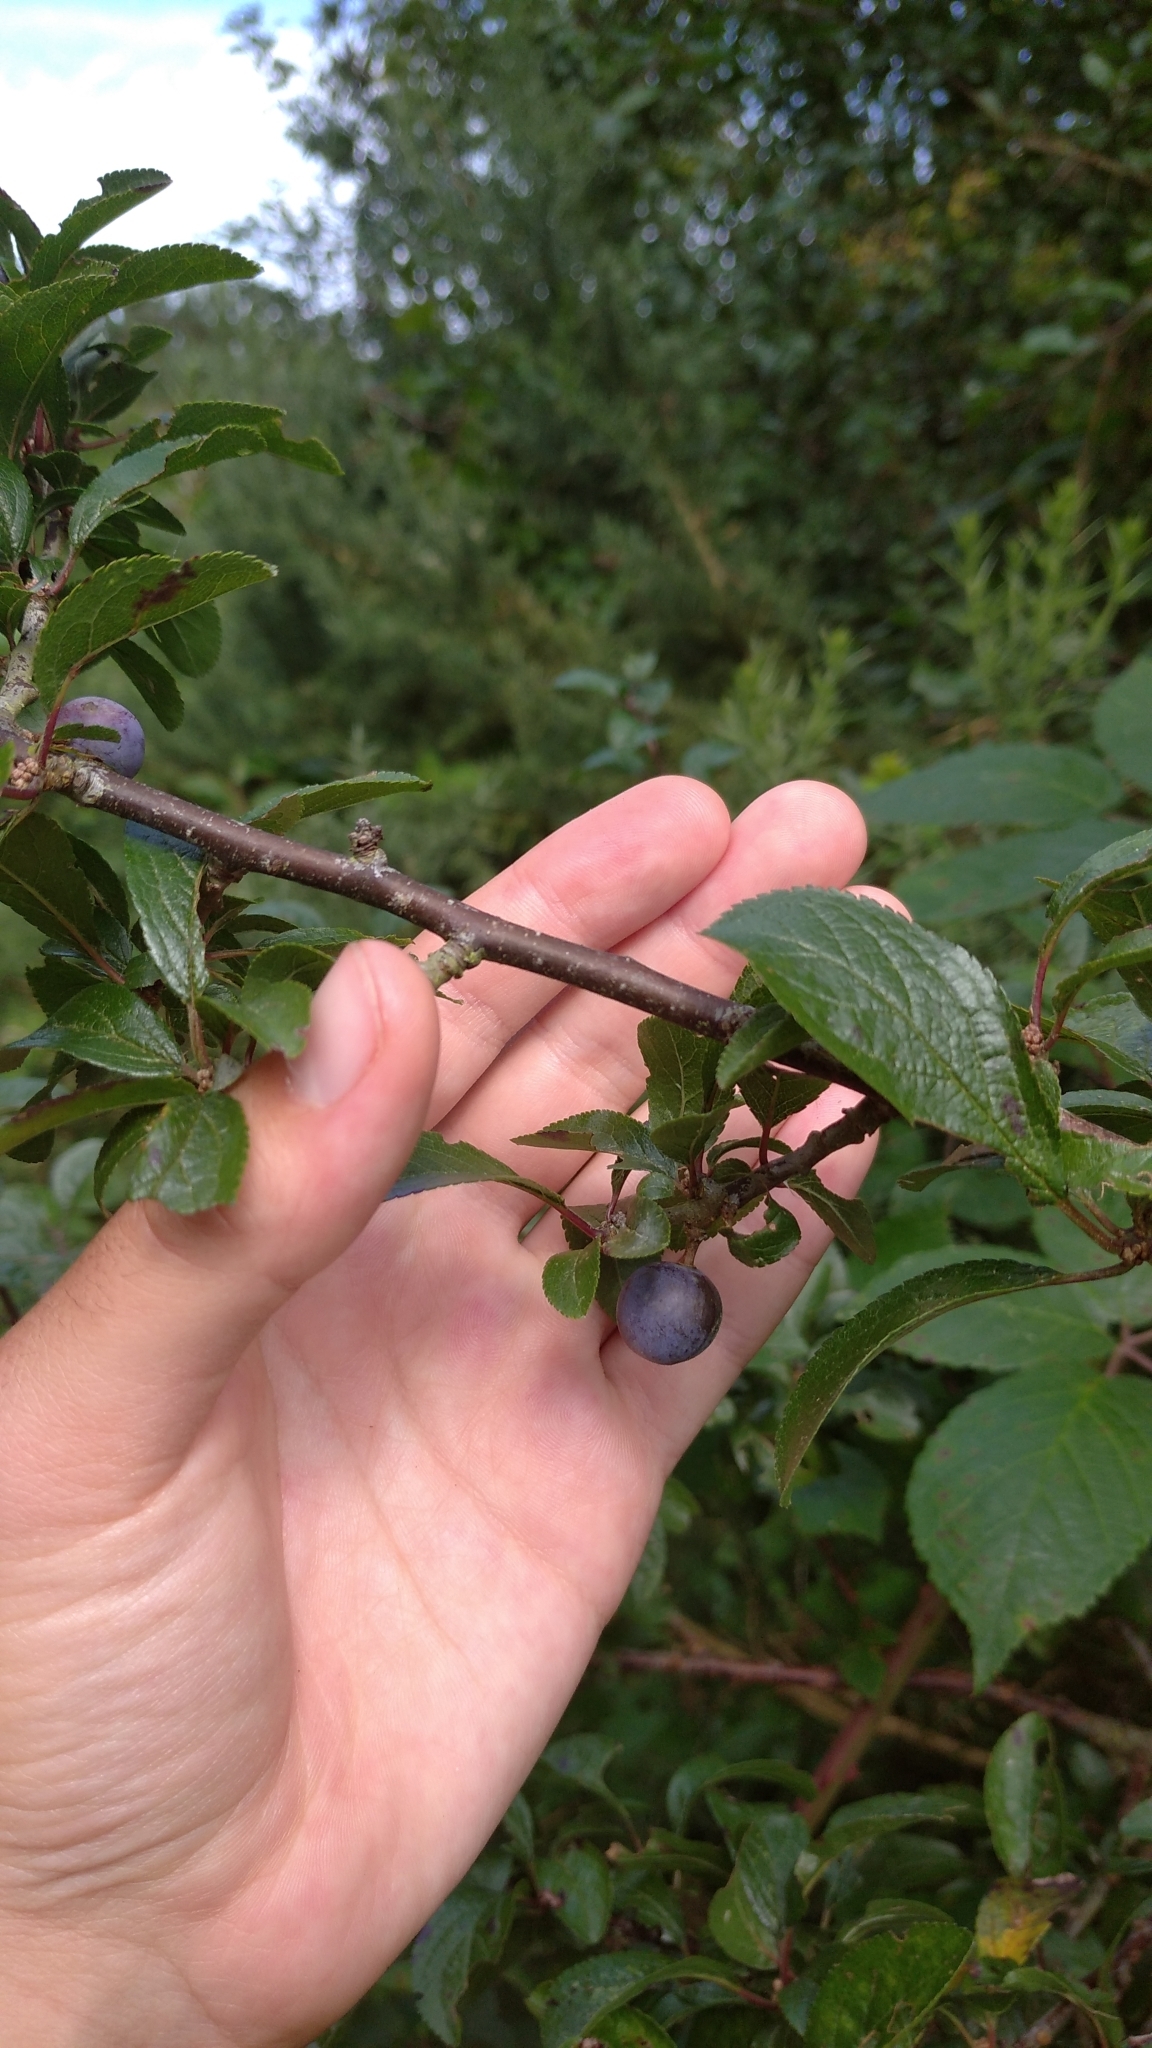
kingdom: Plantae
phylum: Tracheophyta
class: Magnoliopsida
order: Rosales
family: Rosaceae
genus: Prunus
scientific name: Prunus spinosa
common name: Blackthorn
